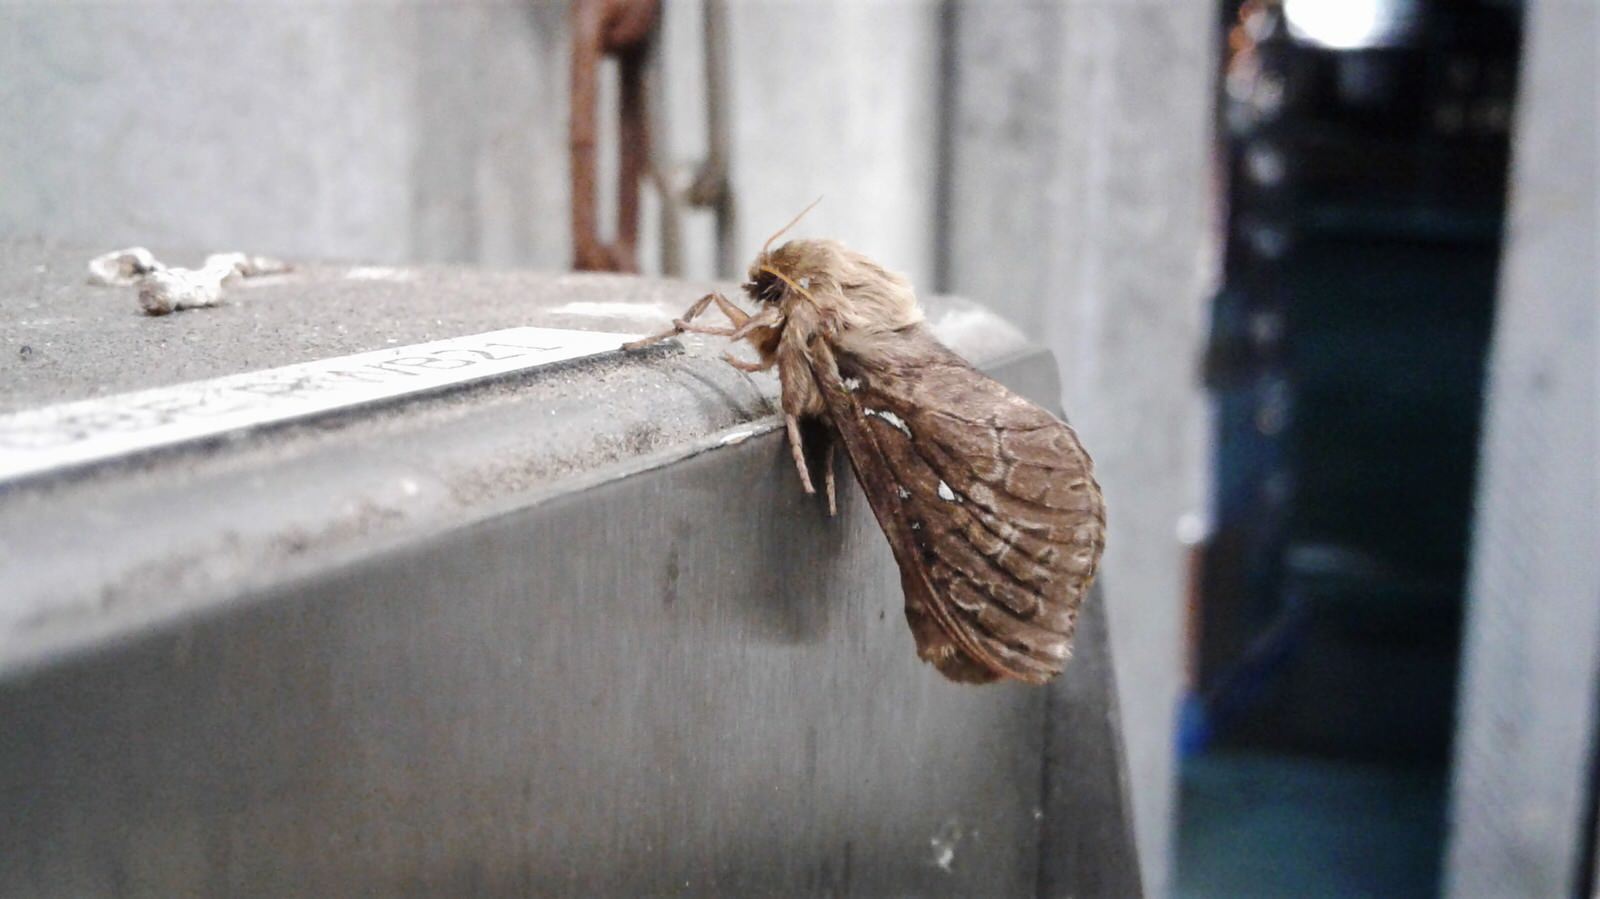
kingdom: Animalia
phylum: Arthropoda
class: Insecta
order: Lepidoptera
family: Hepialidae
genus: Wiseana
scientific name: Wiseana cervinata
